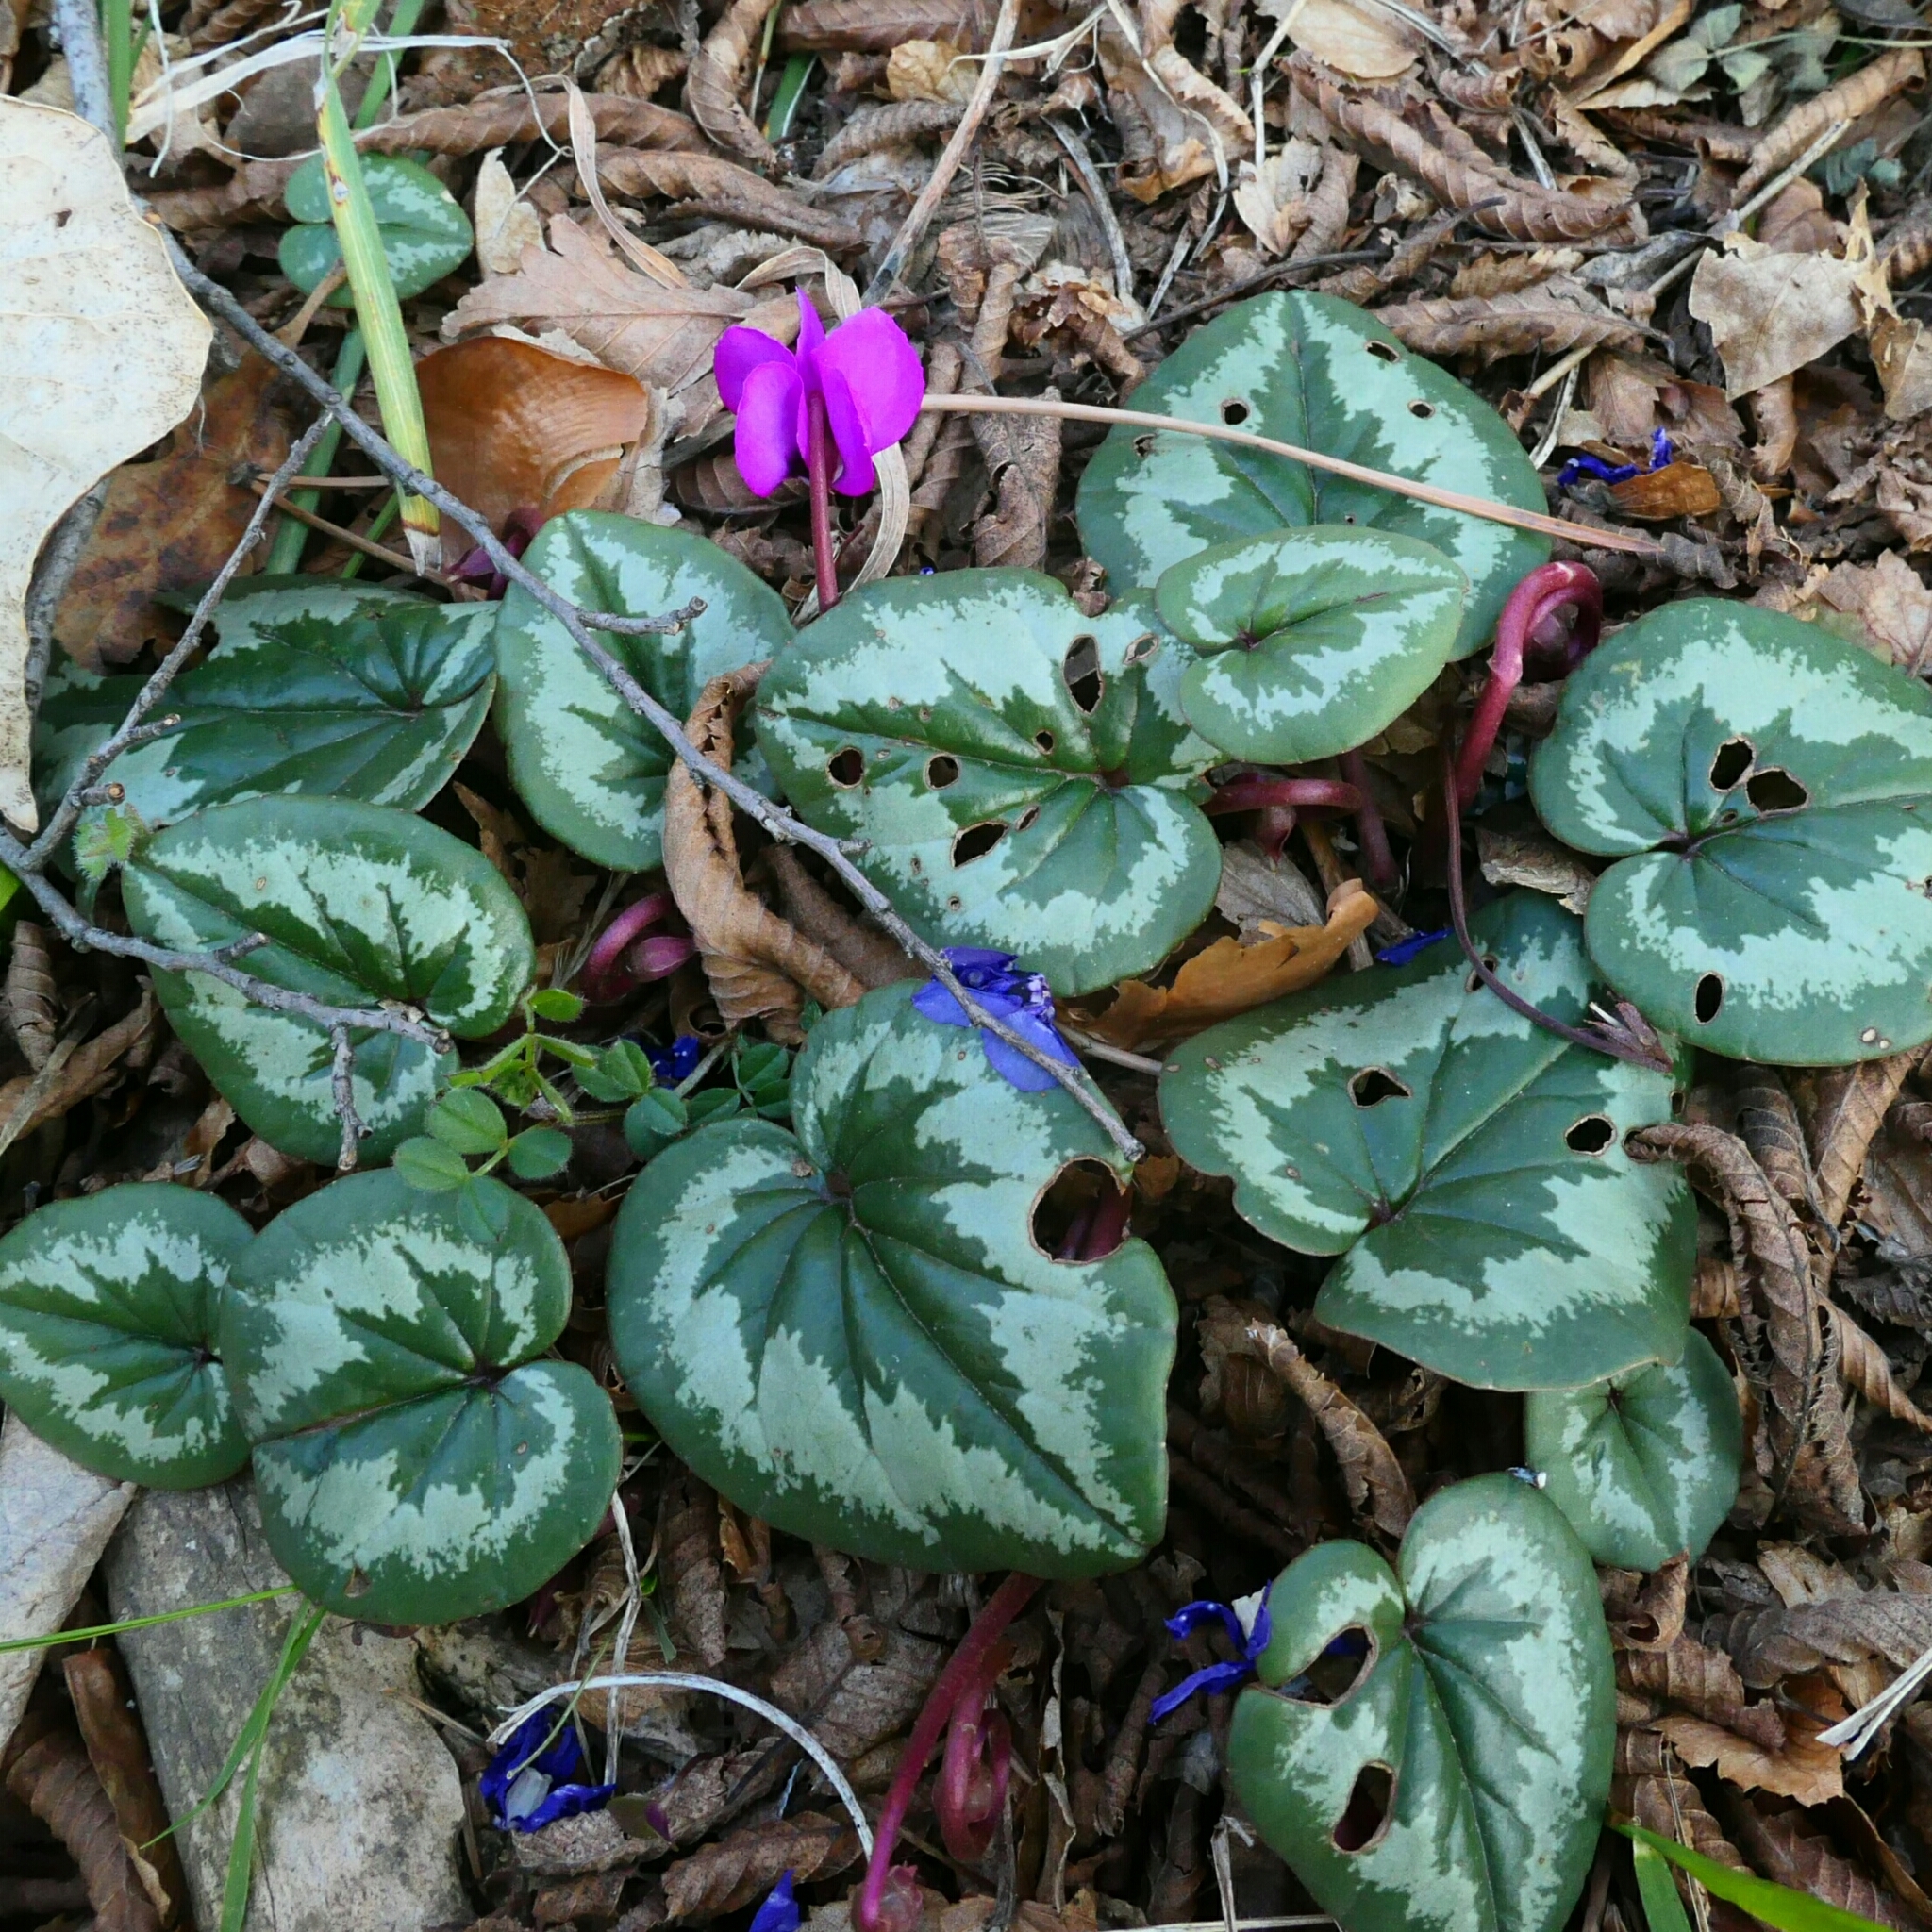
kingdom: Plantae
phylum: Tracheophyta
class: Magnoliopsida
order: Ericales
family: Primulaceae
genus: Cyclamen
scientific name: Cyclamen coum
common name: Eastern sowbread
